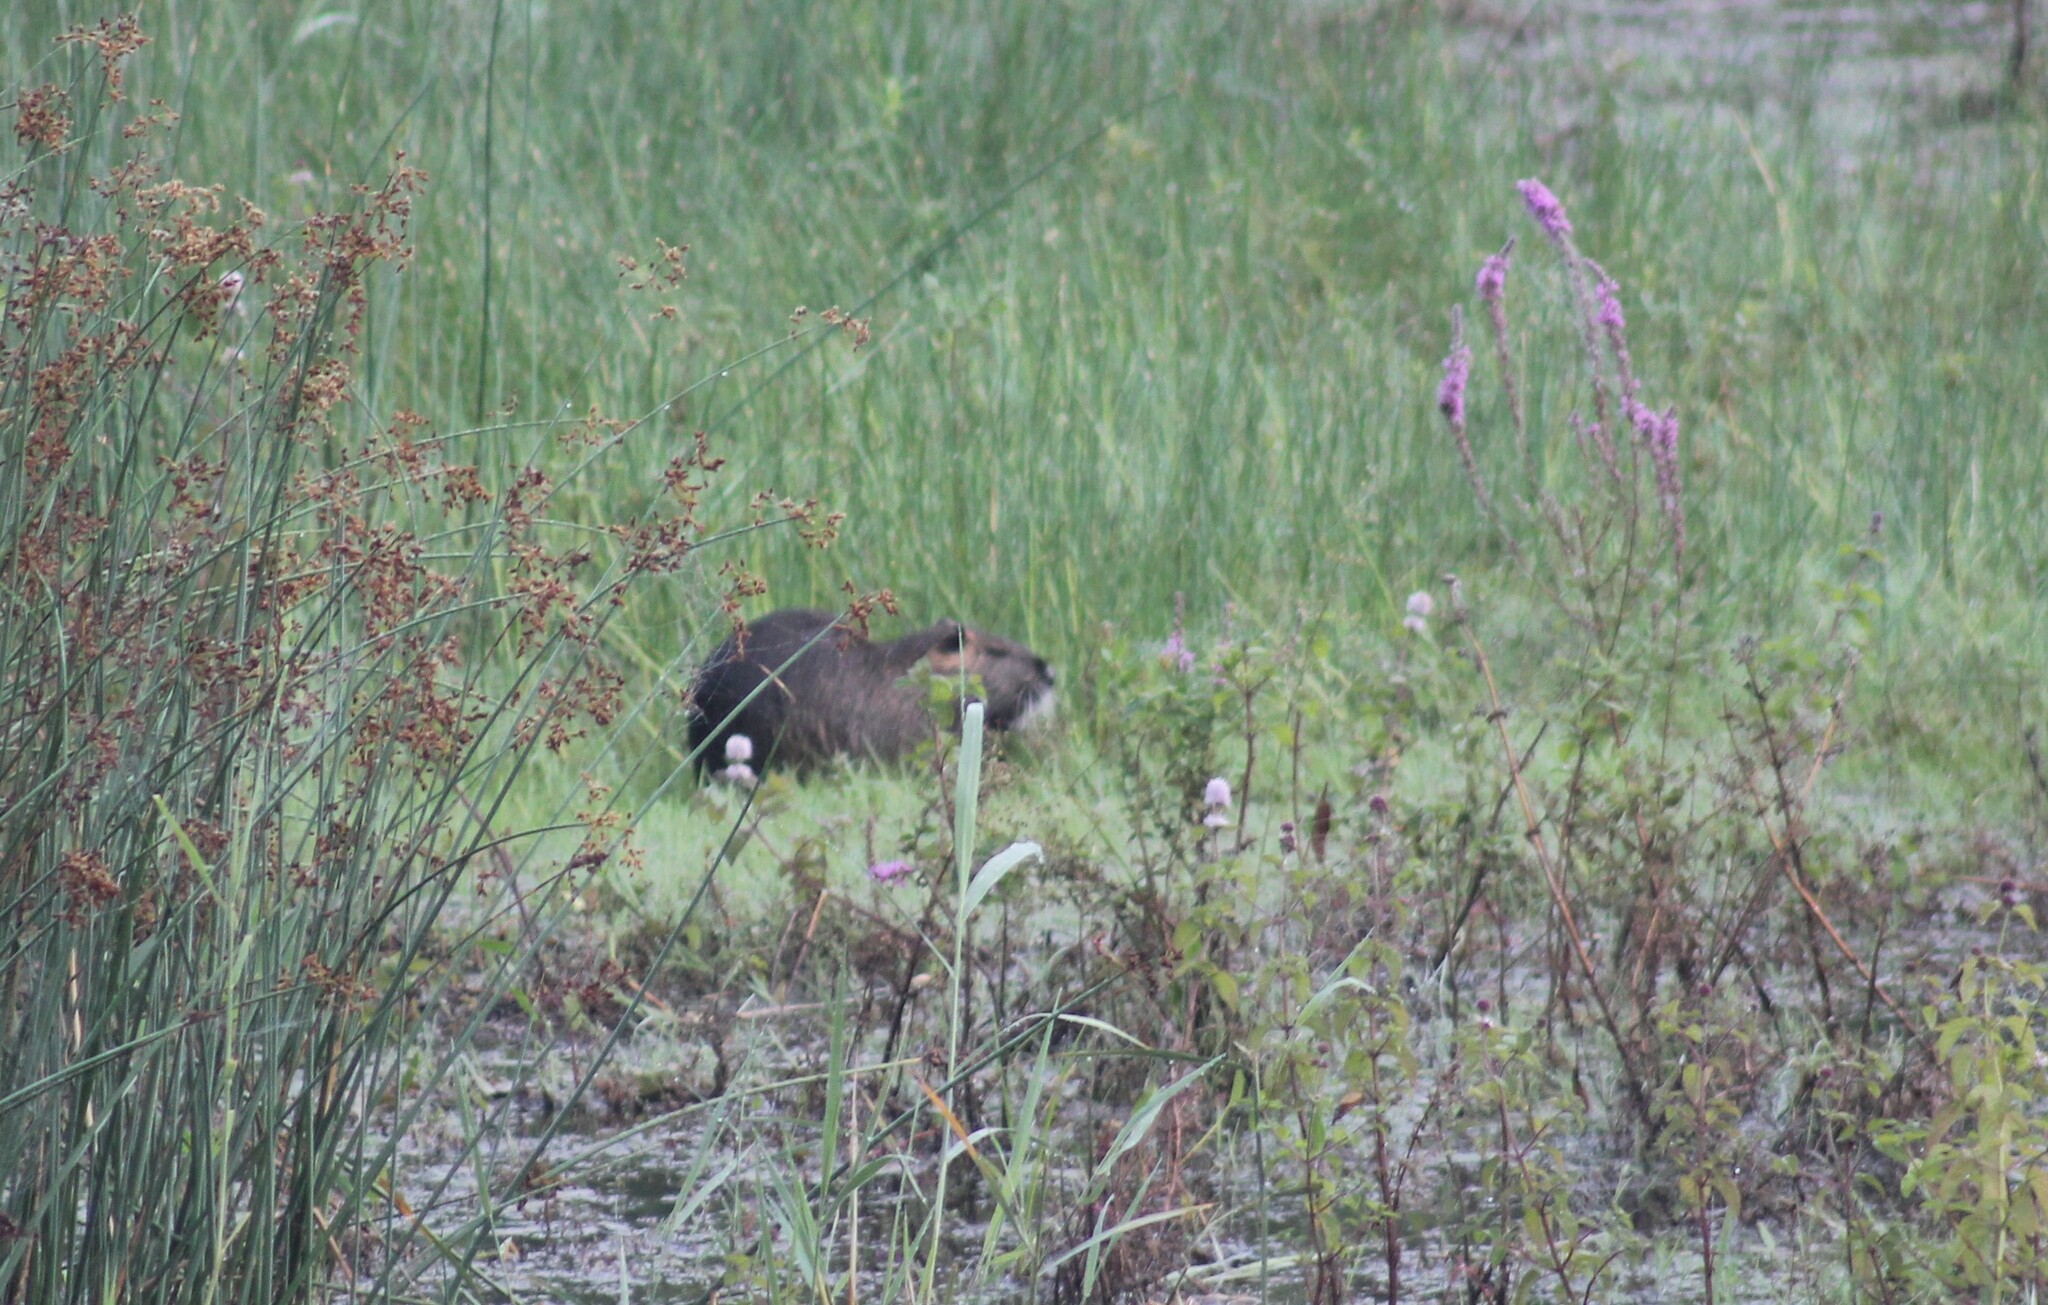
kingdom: Animalia
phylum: Chordata
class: Mammalia
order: Rodentia
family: Myocastoridae
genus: Myocastor
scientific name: Myocastor coypus
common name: Coypu
